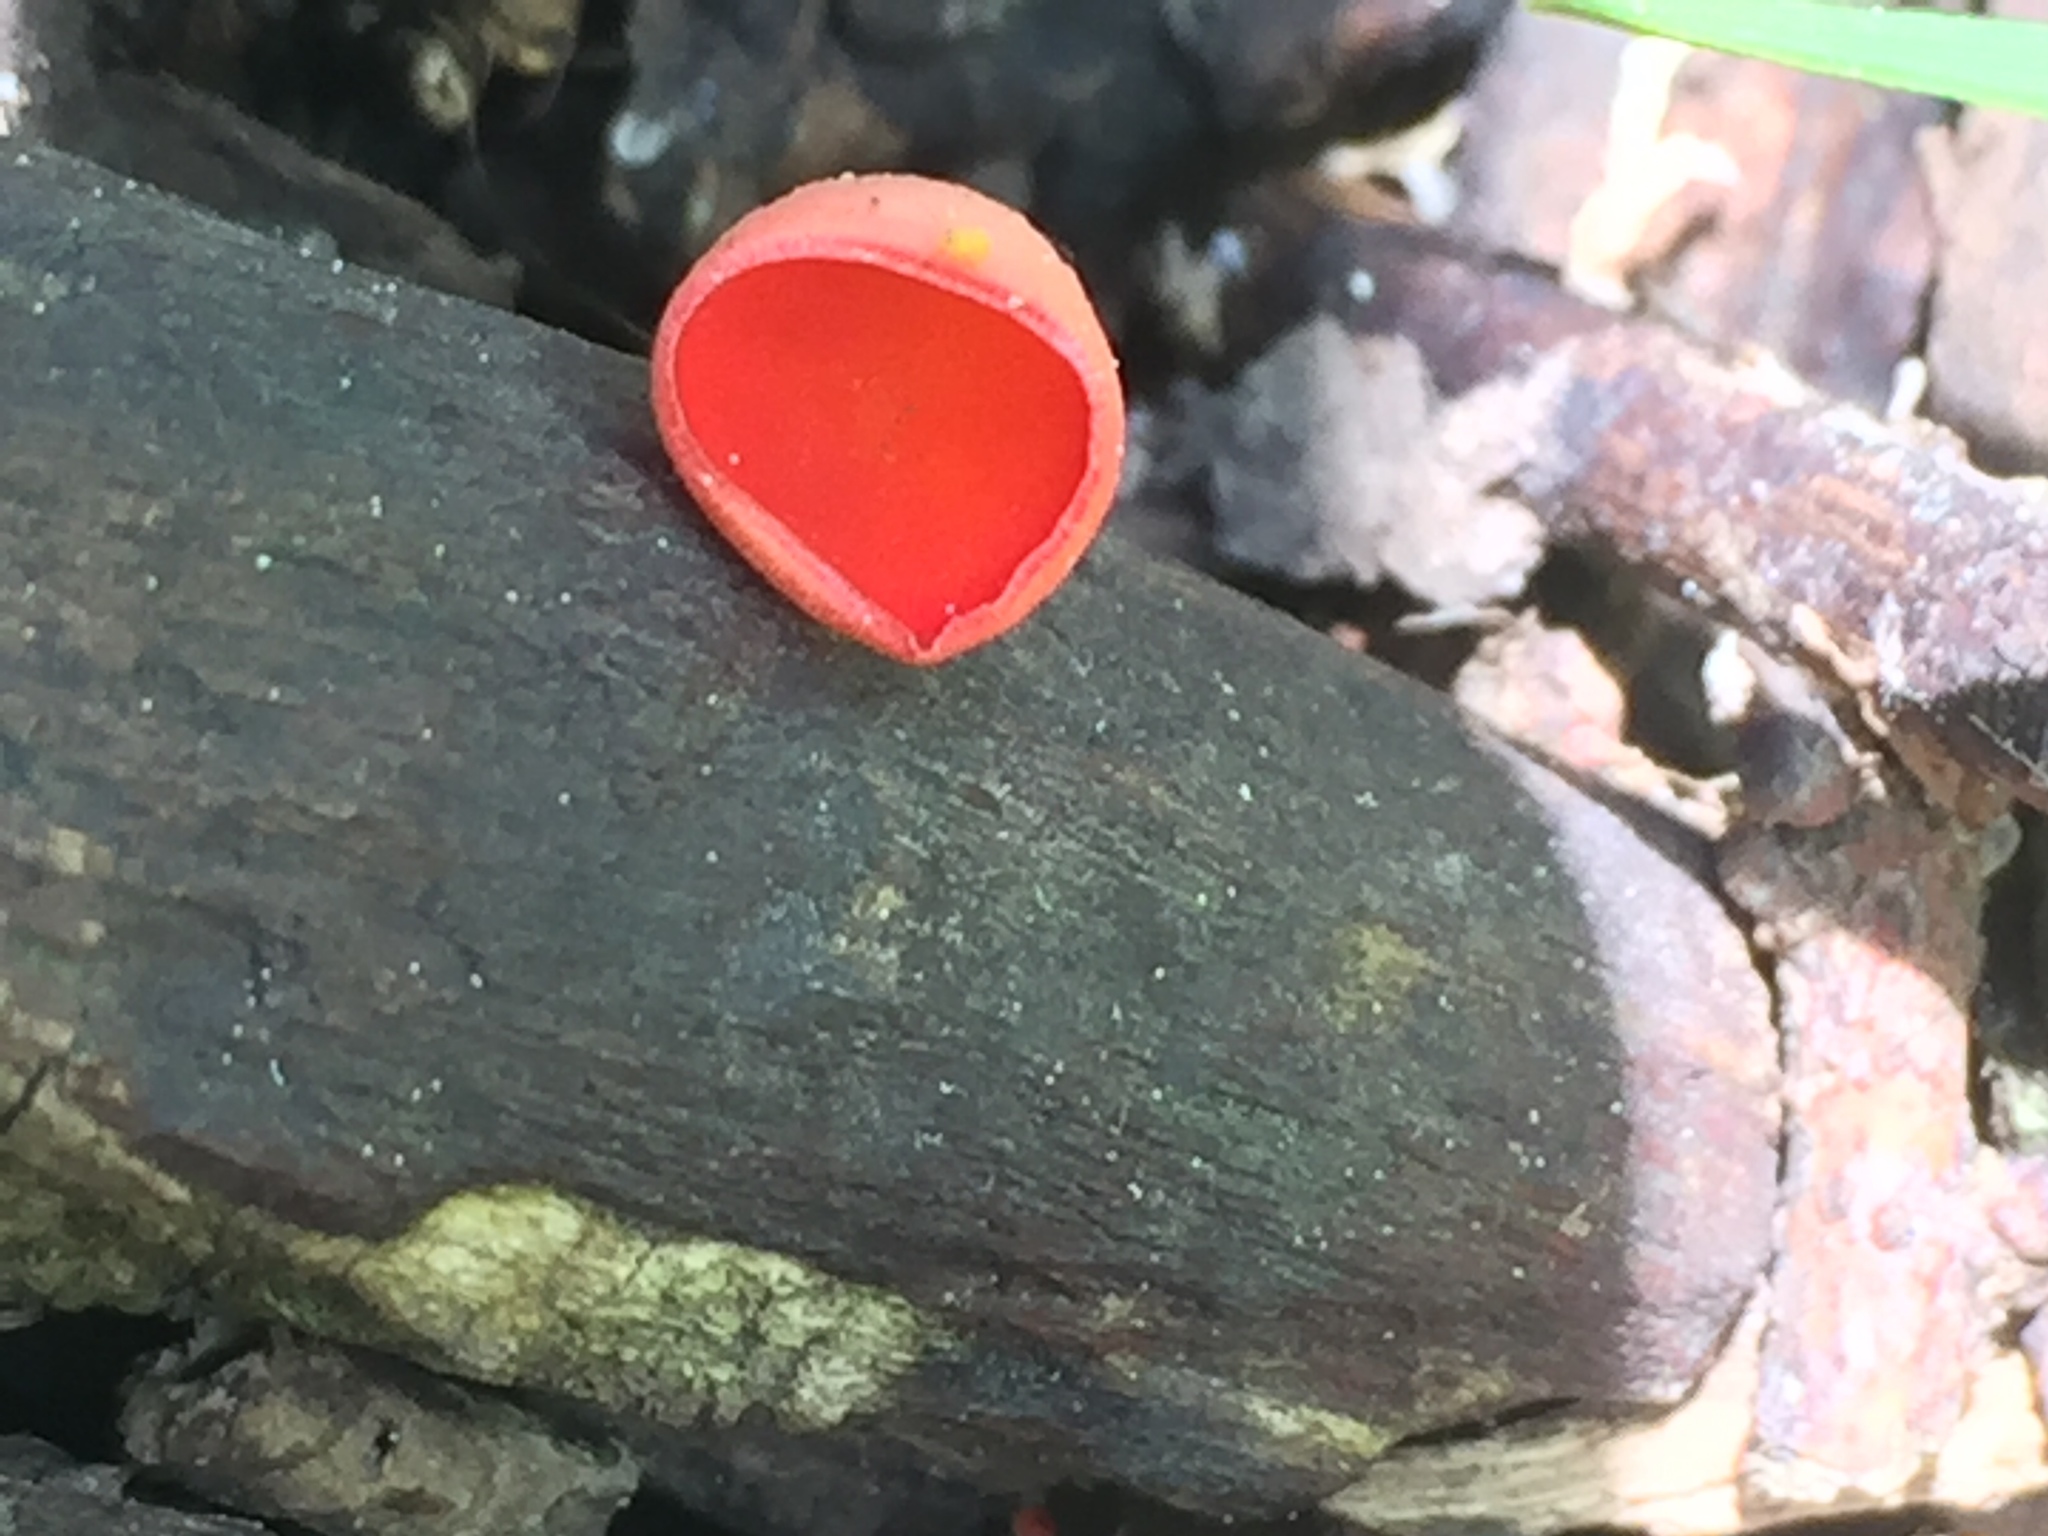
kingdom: Fungi
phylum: Ascomycota
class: Pezizomycetes
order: Pezizales
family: Sarcoscyphaceae
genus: Sarcoscypha
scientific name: Sarcoscypha occidentalis
